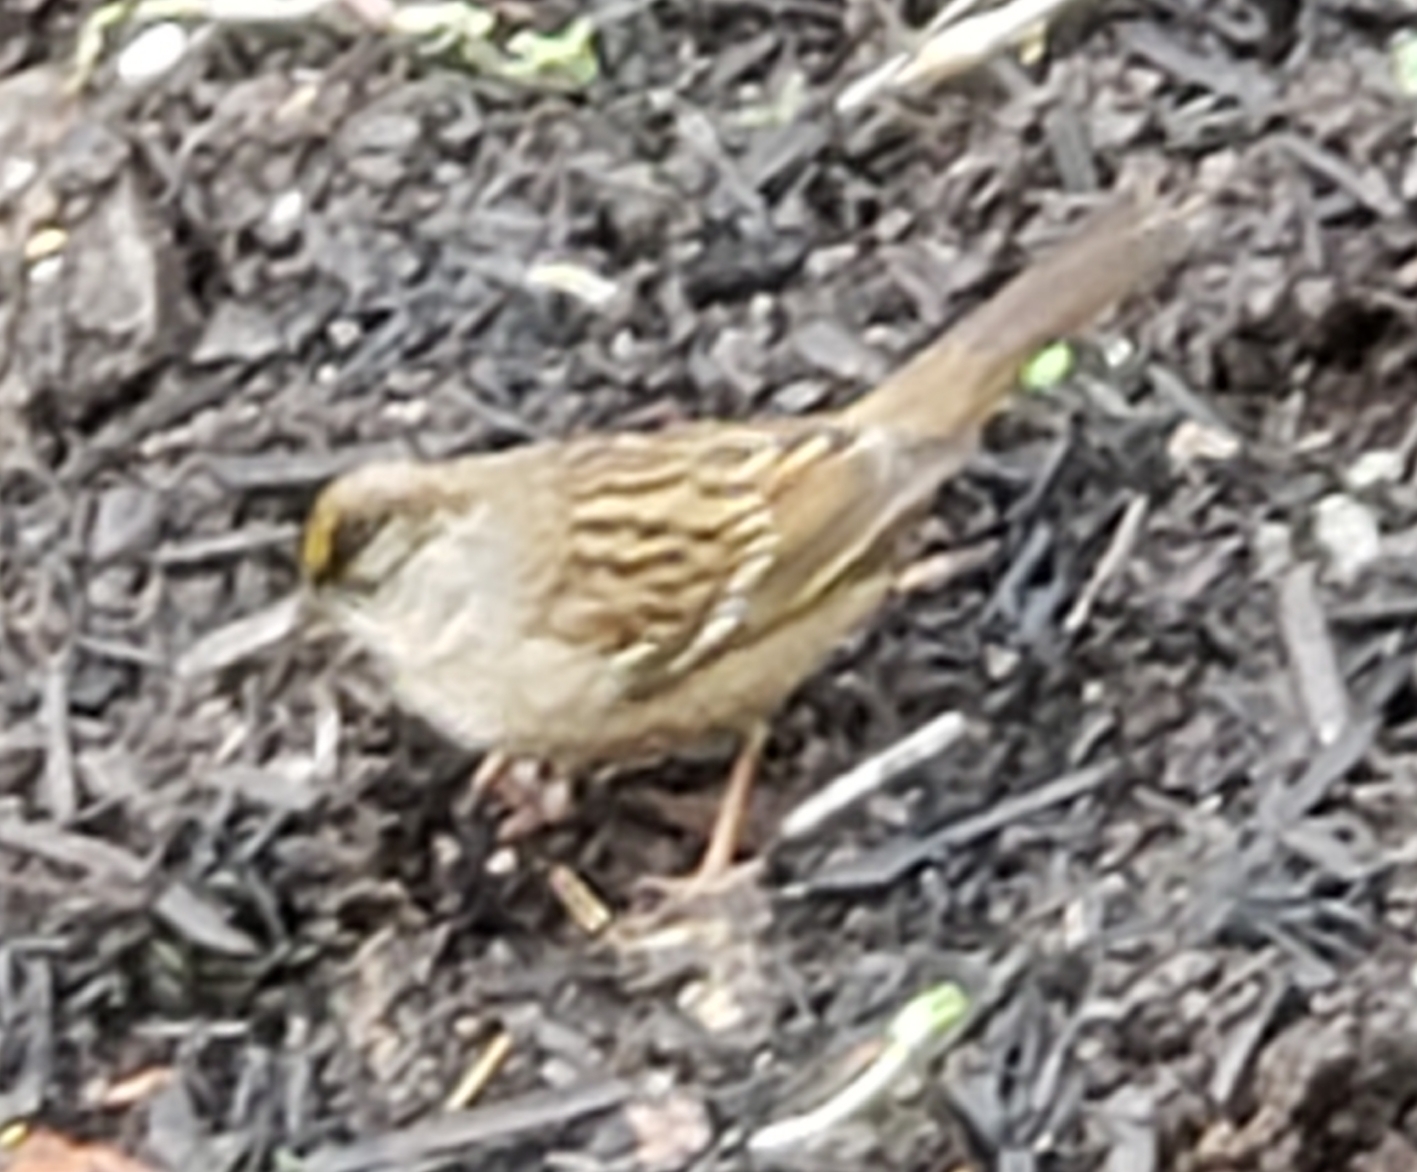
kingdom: Animalia
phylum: Chordata
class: Aves
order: Passeriformes
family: Passerellidae
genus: Zonotrichia
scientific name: Zonotrichia atricapilla
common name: Golden-crowned sparrow
